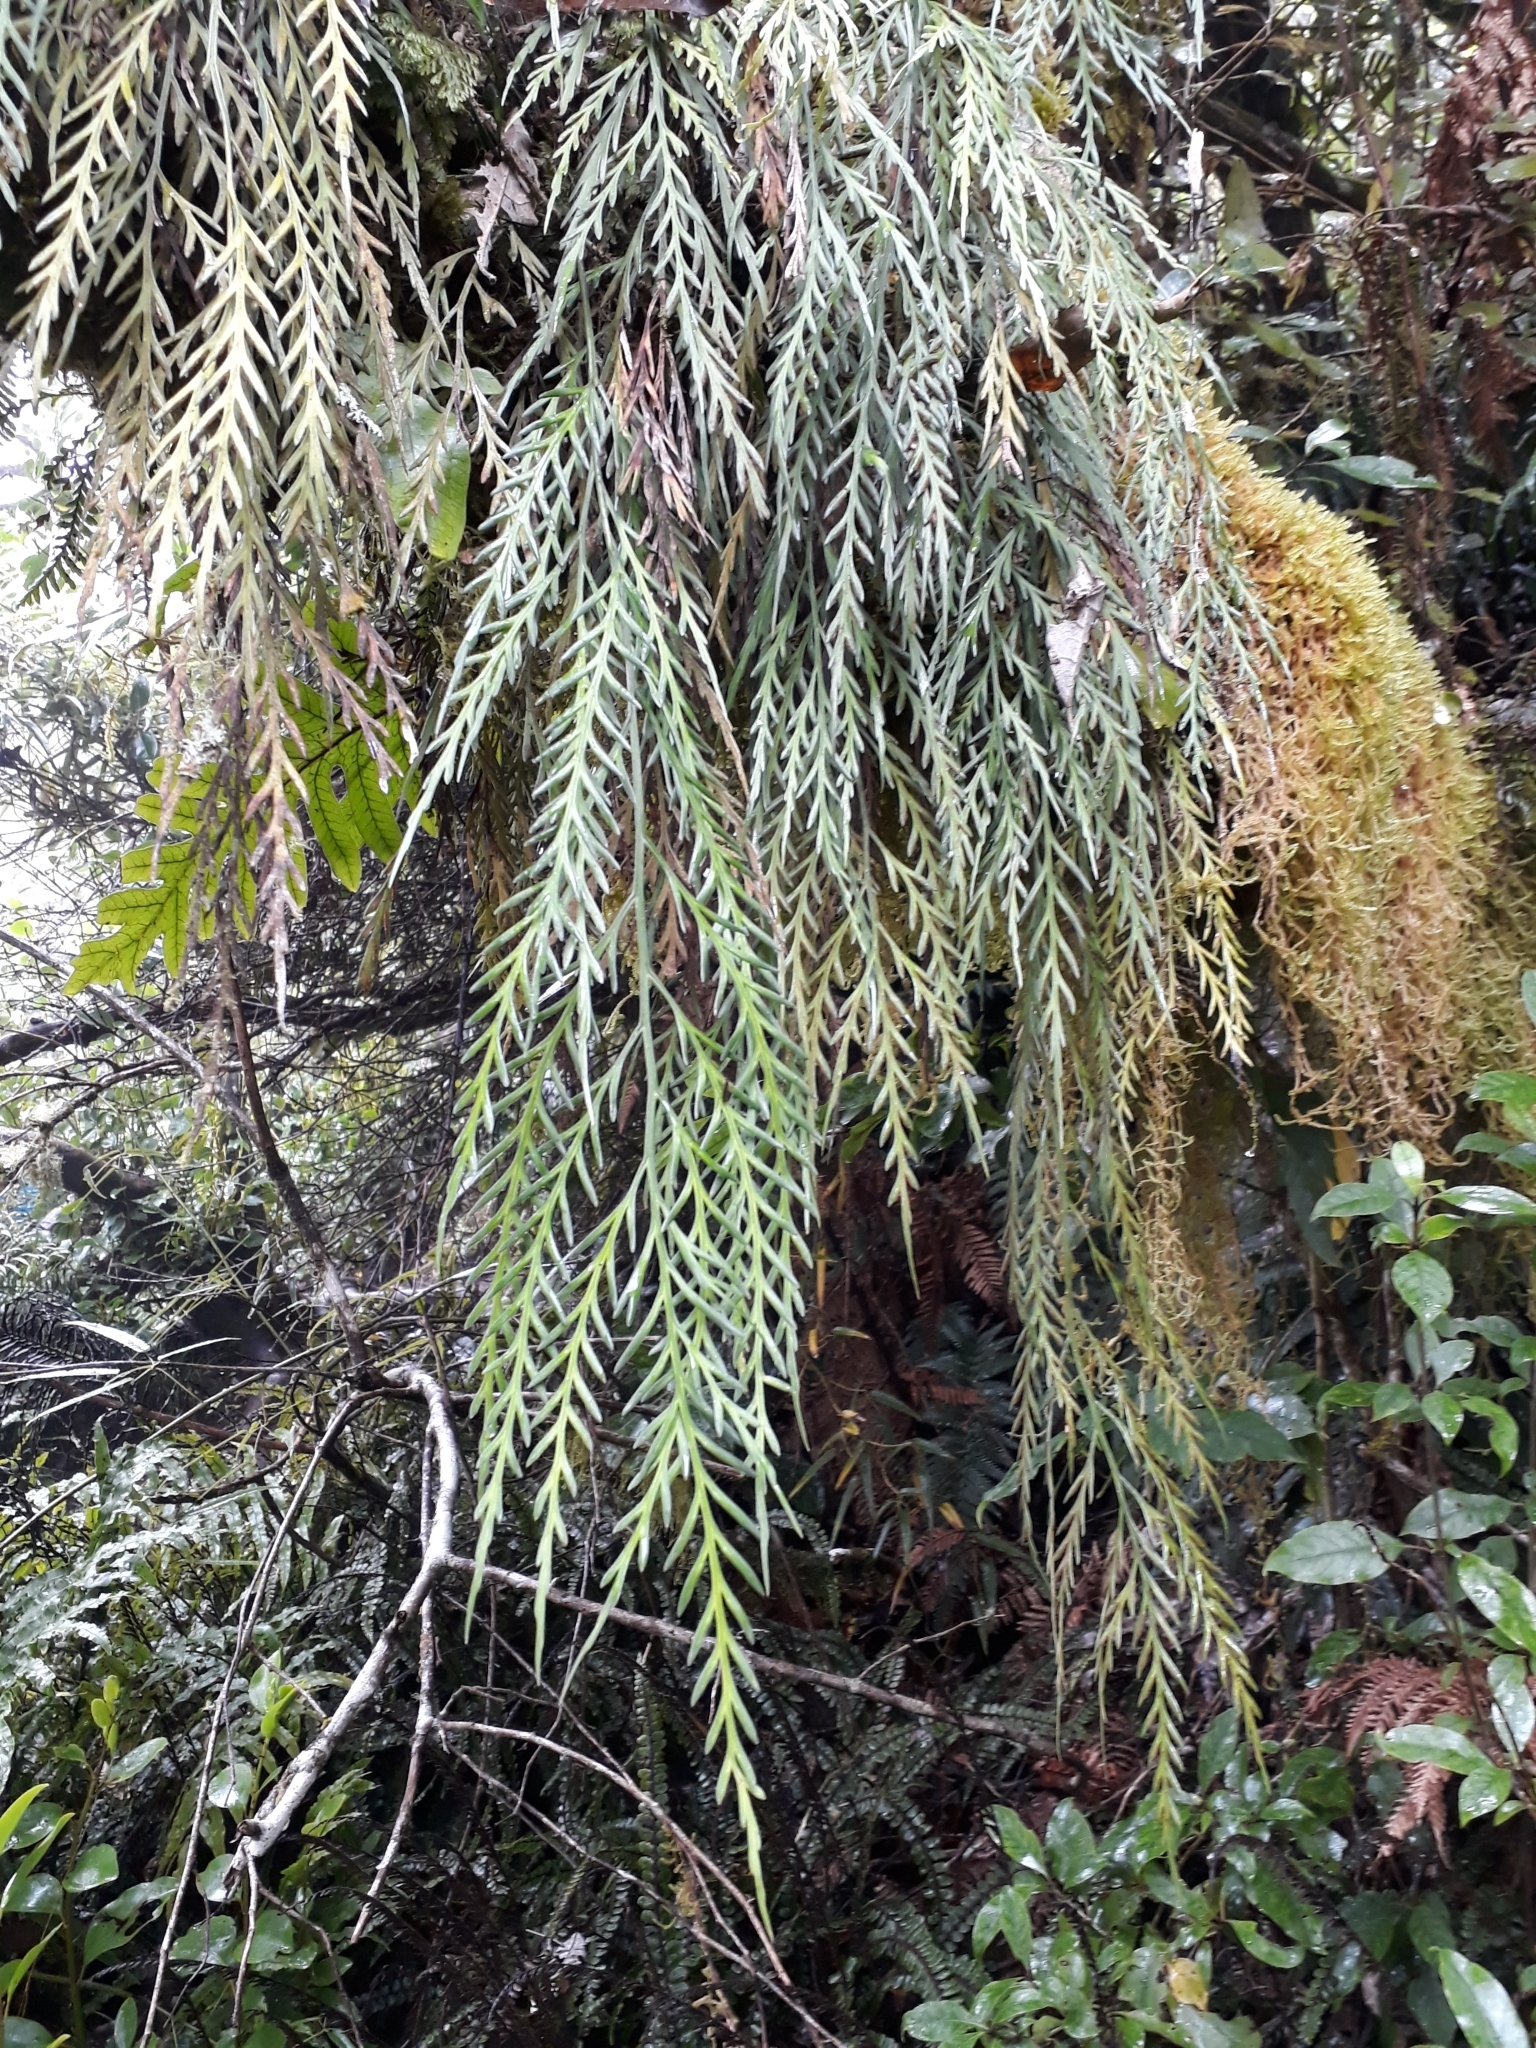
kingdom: Plantae
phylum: Tracheophyta
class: Polypodiopsida
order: Polypodiales
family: Aspleniaceae
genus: Asplenium
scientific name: Asplenium flaccidum
